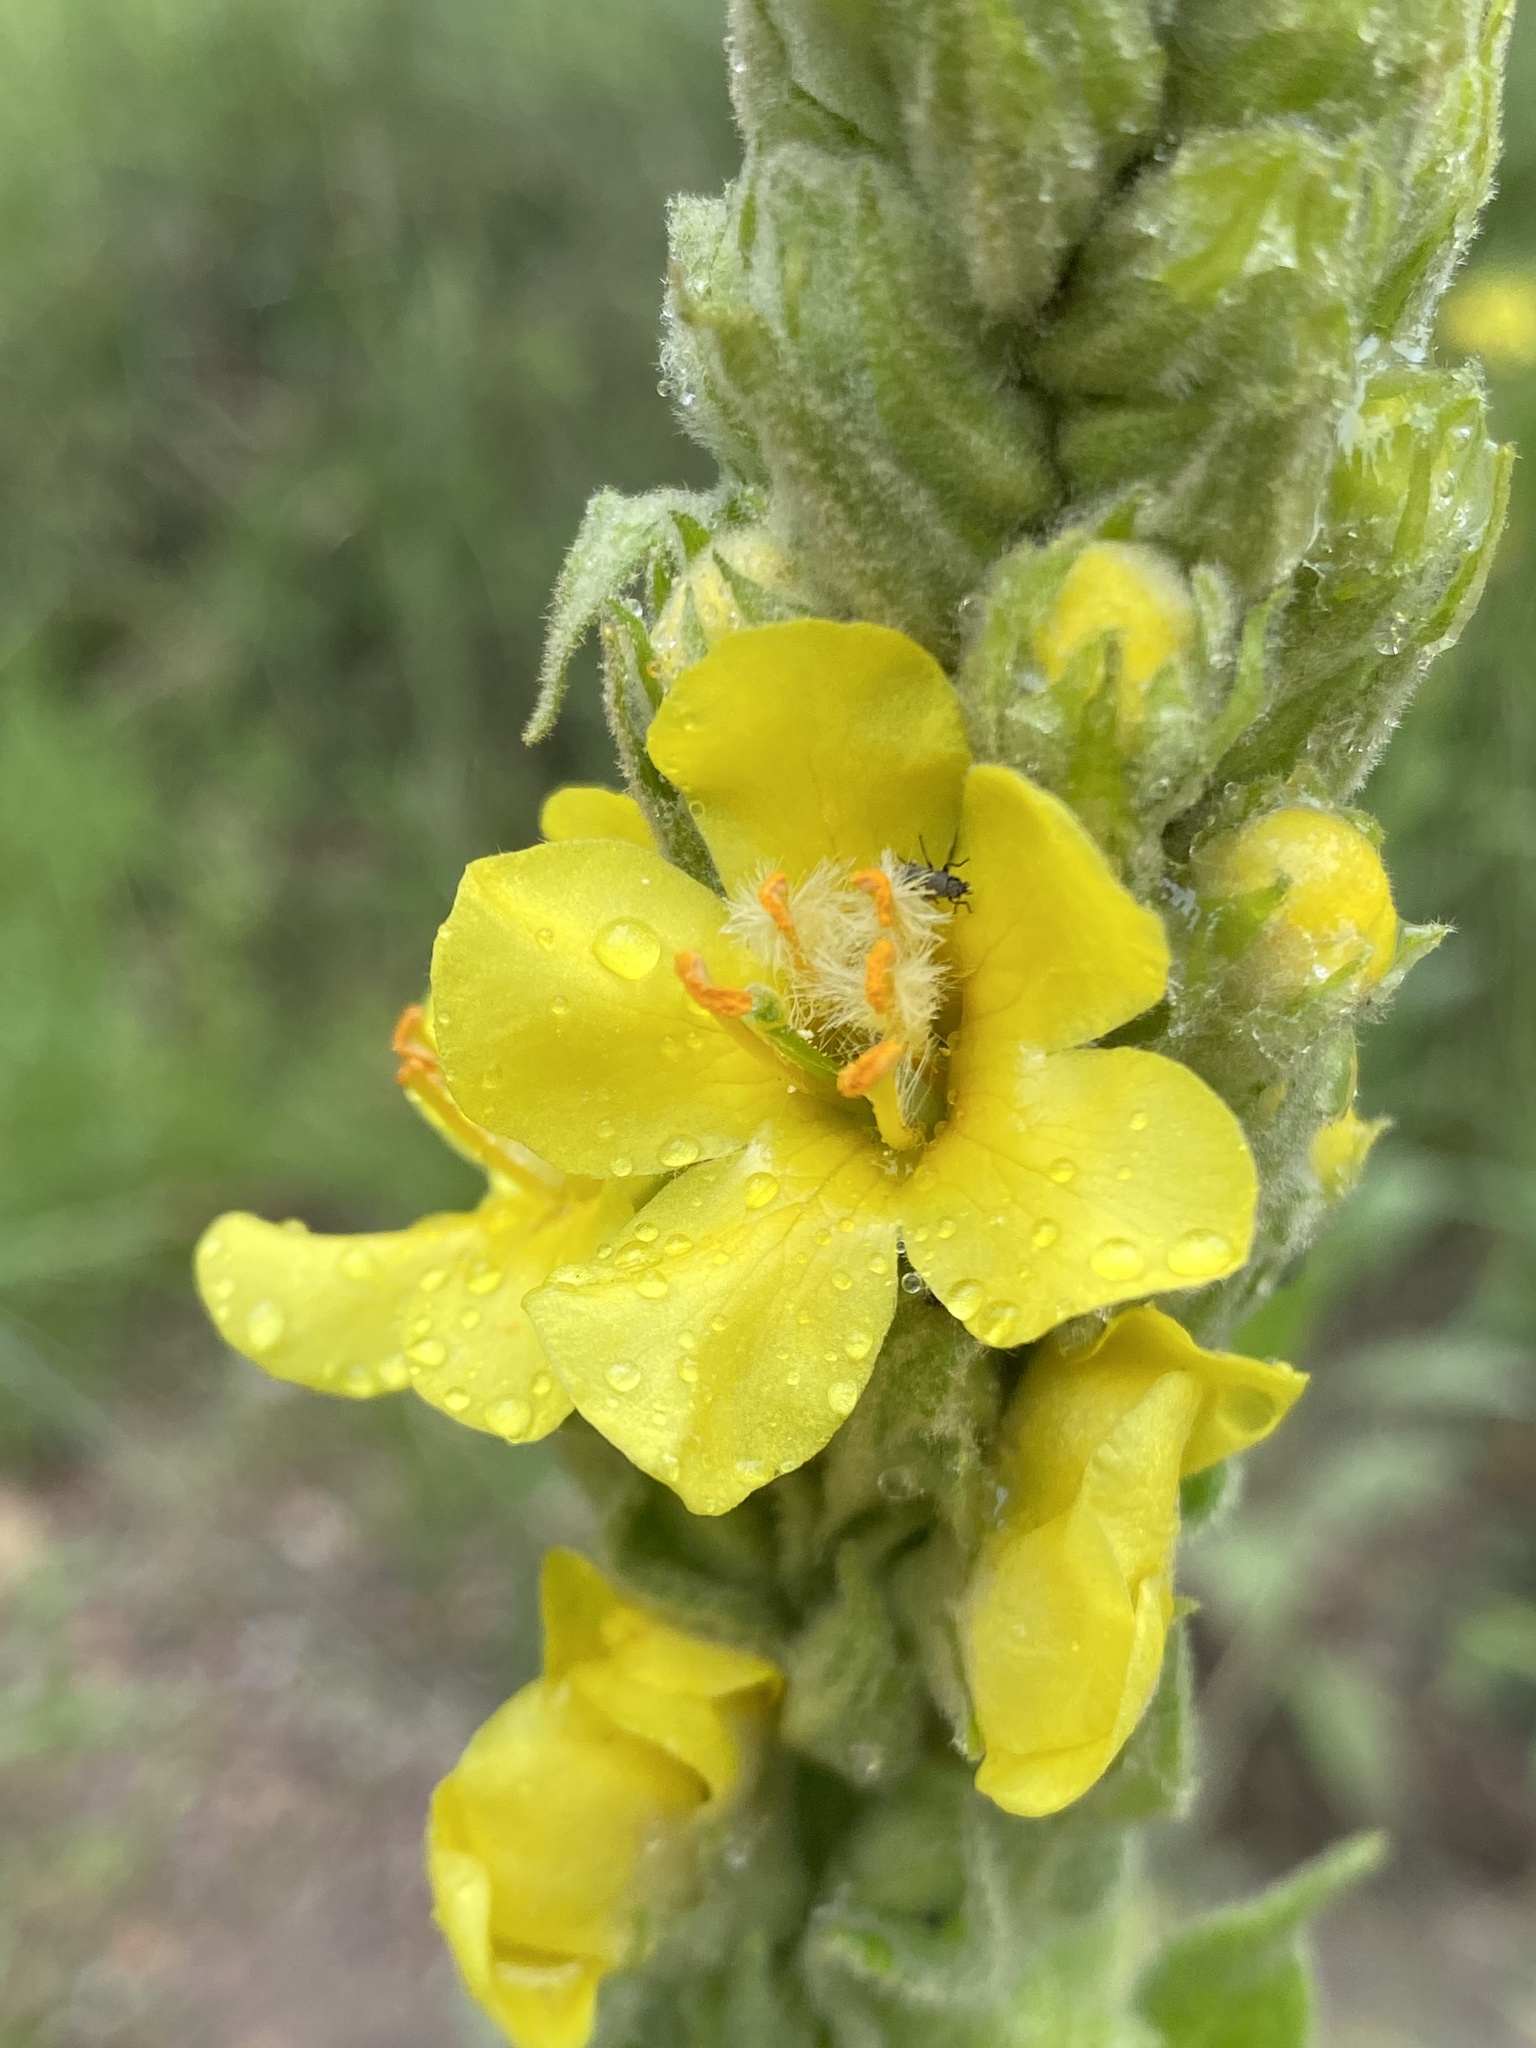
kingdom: Plantae
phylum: Tracheophyta
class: Magnoliopsida
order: Lamiales
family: Scrophulariaceae
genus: Verbascum
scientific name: Verbascum thapsus
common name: Common mullein
